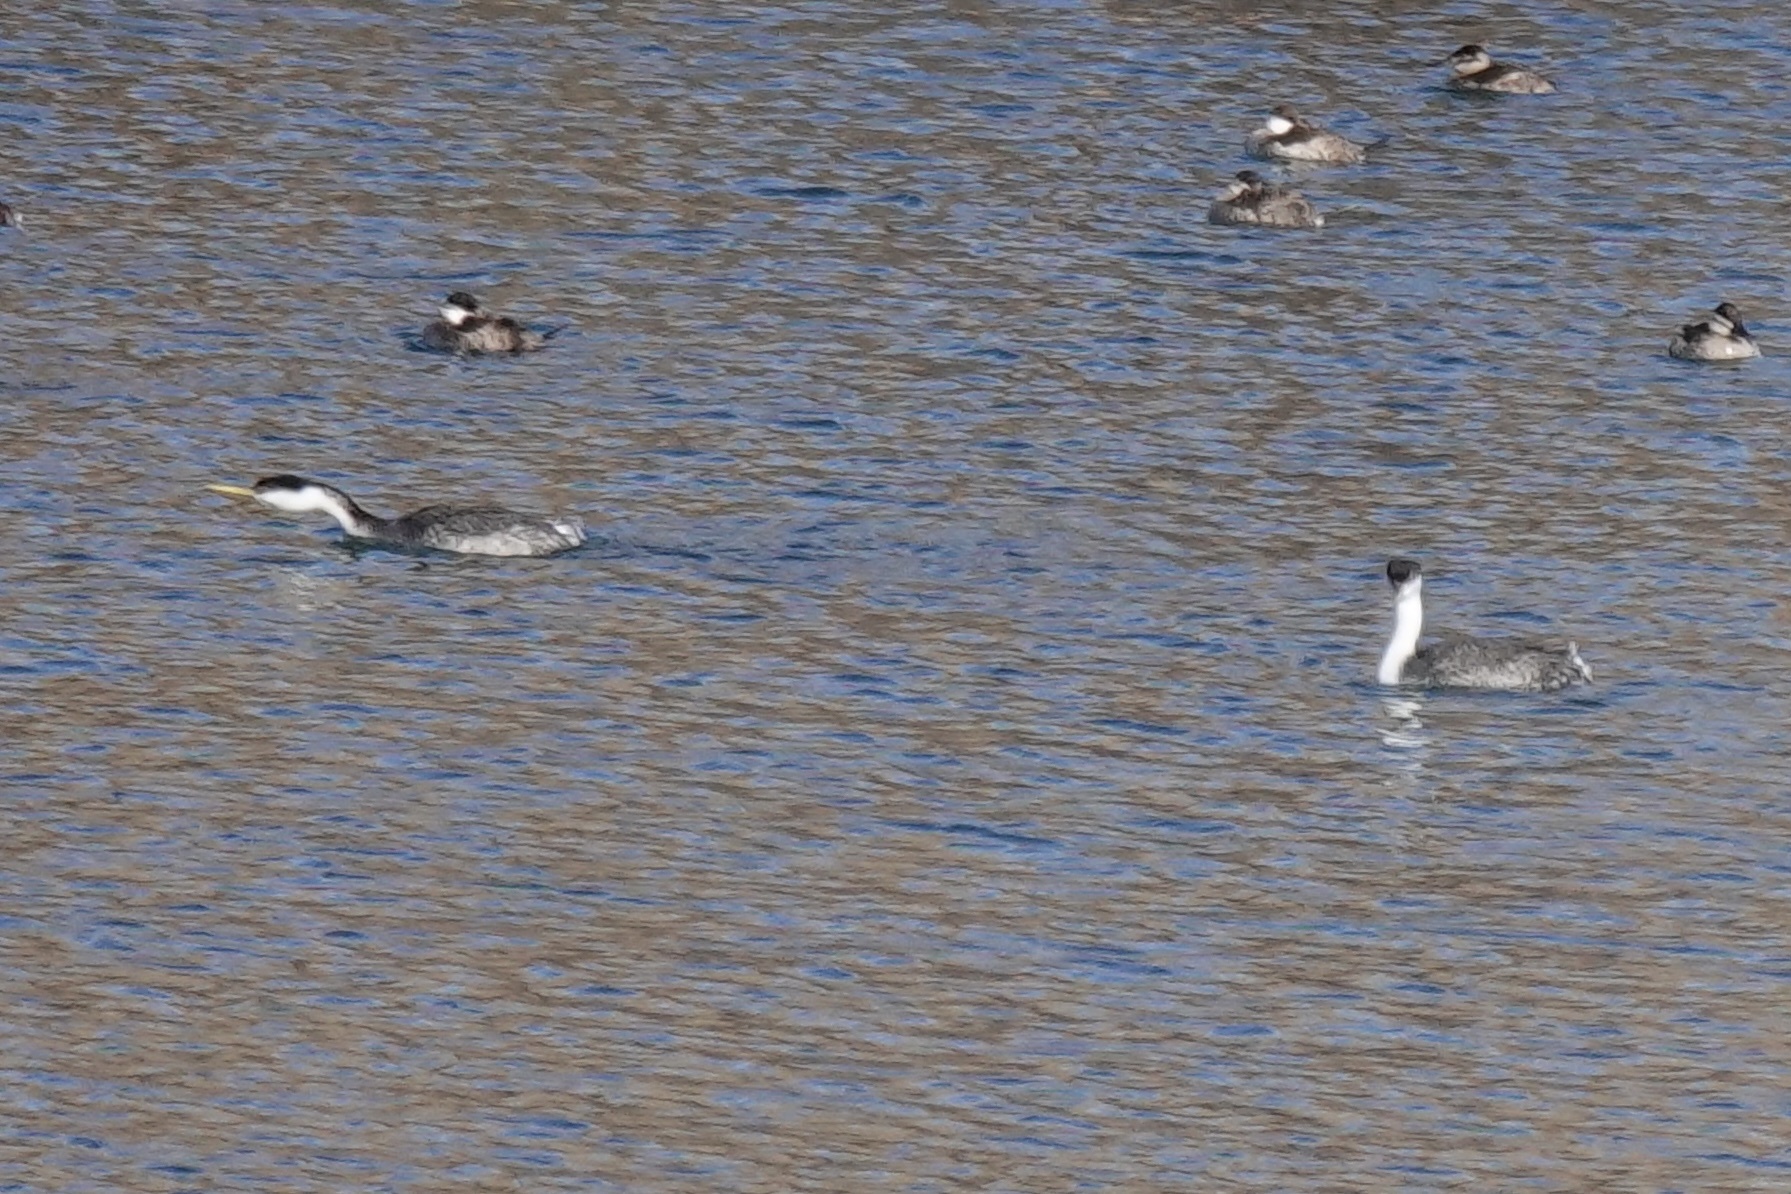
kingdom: Animalia
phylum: Chordata
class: Aves
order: Podicipediformes
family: Podicipedidae
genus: Aechmophorus
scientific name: Aechmophorus occidentalis
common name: Western grebe
